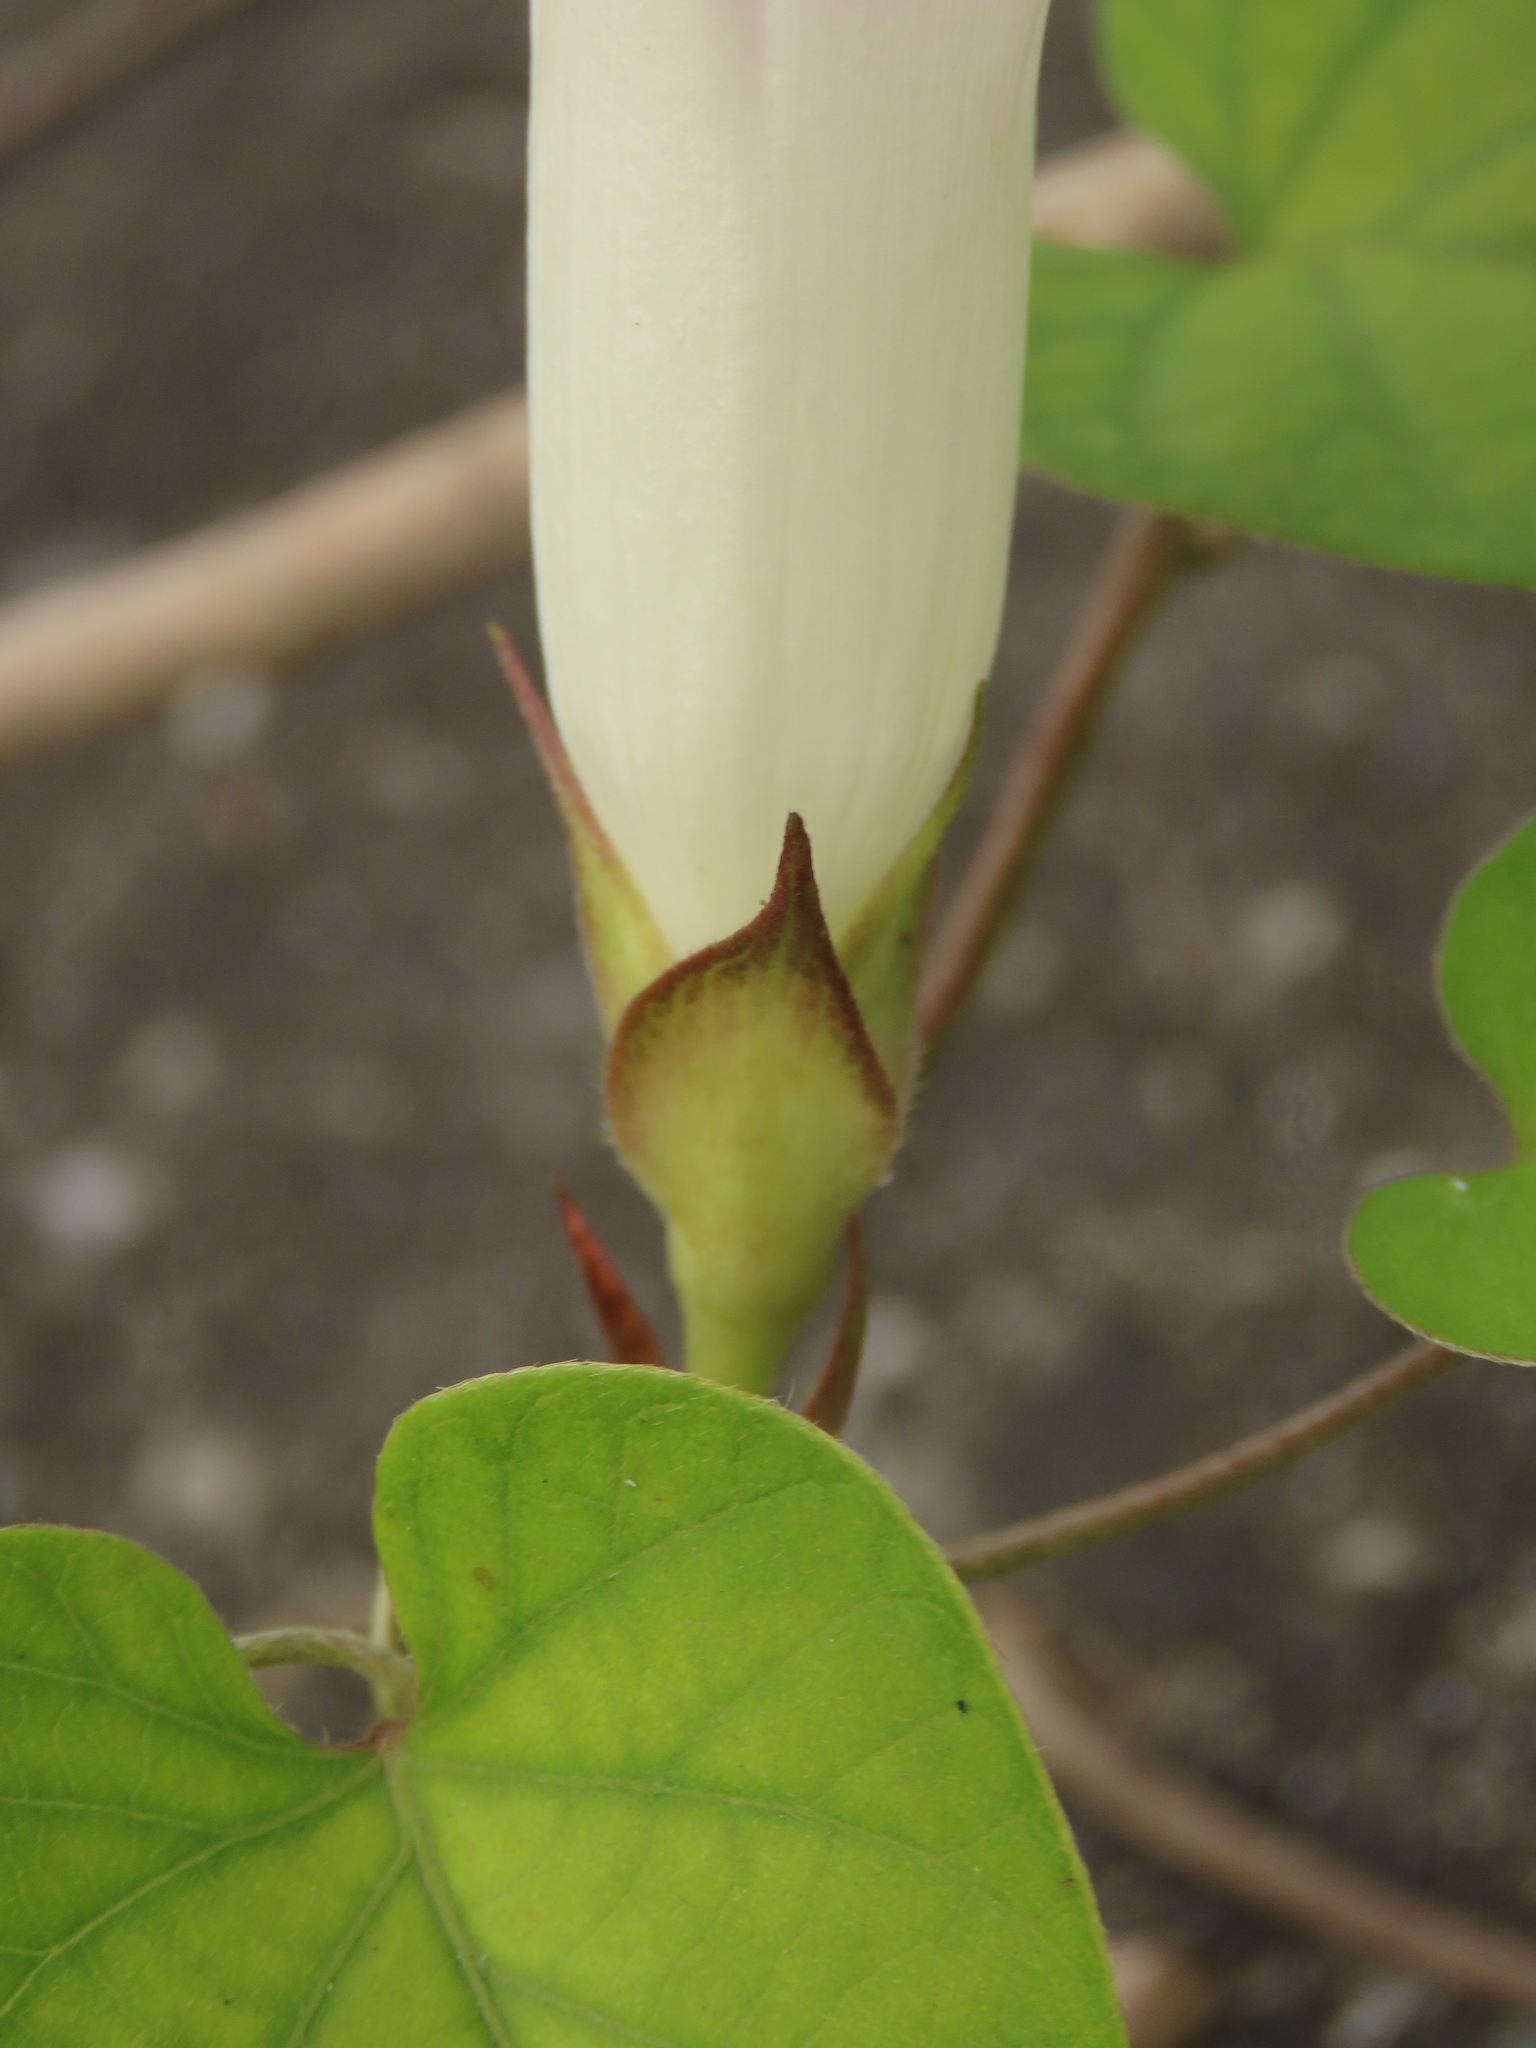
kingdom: Plantae
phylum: Tracheophyta
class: Magnoliopsida
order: Solanales
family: Convolvulaceae
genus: Ipomoea
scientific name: Ipomoea indica
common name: Blue dawnflower
